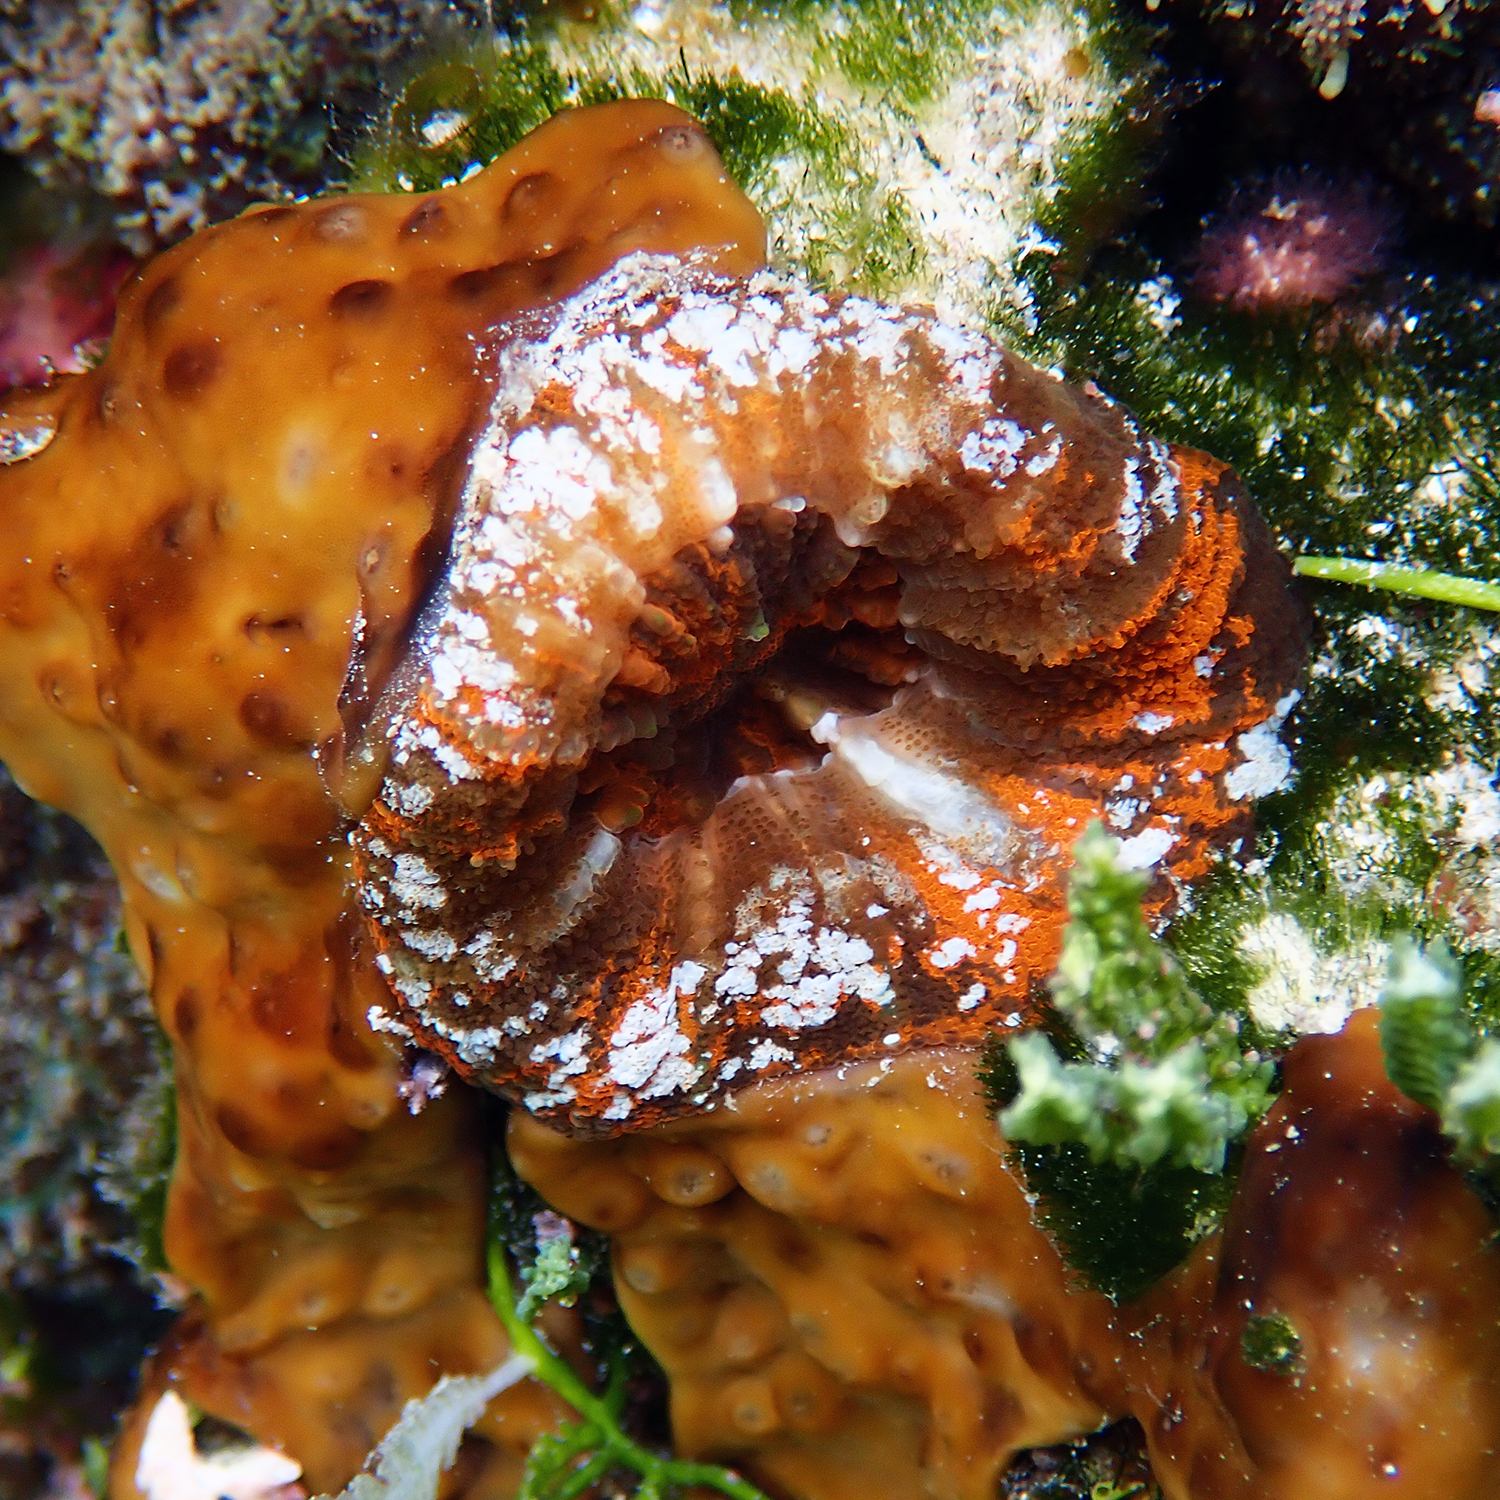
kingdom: Animalia
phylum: Cnidaria
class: Anthozoa
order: Scleractinia
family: Lobophylliidae
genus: Homophyllia
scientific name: Homophyllia australis
